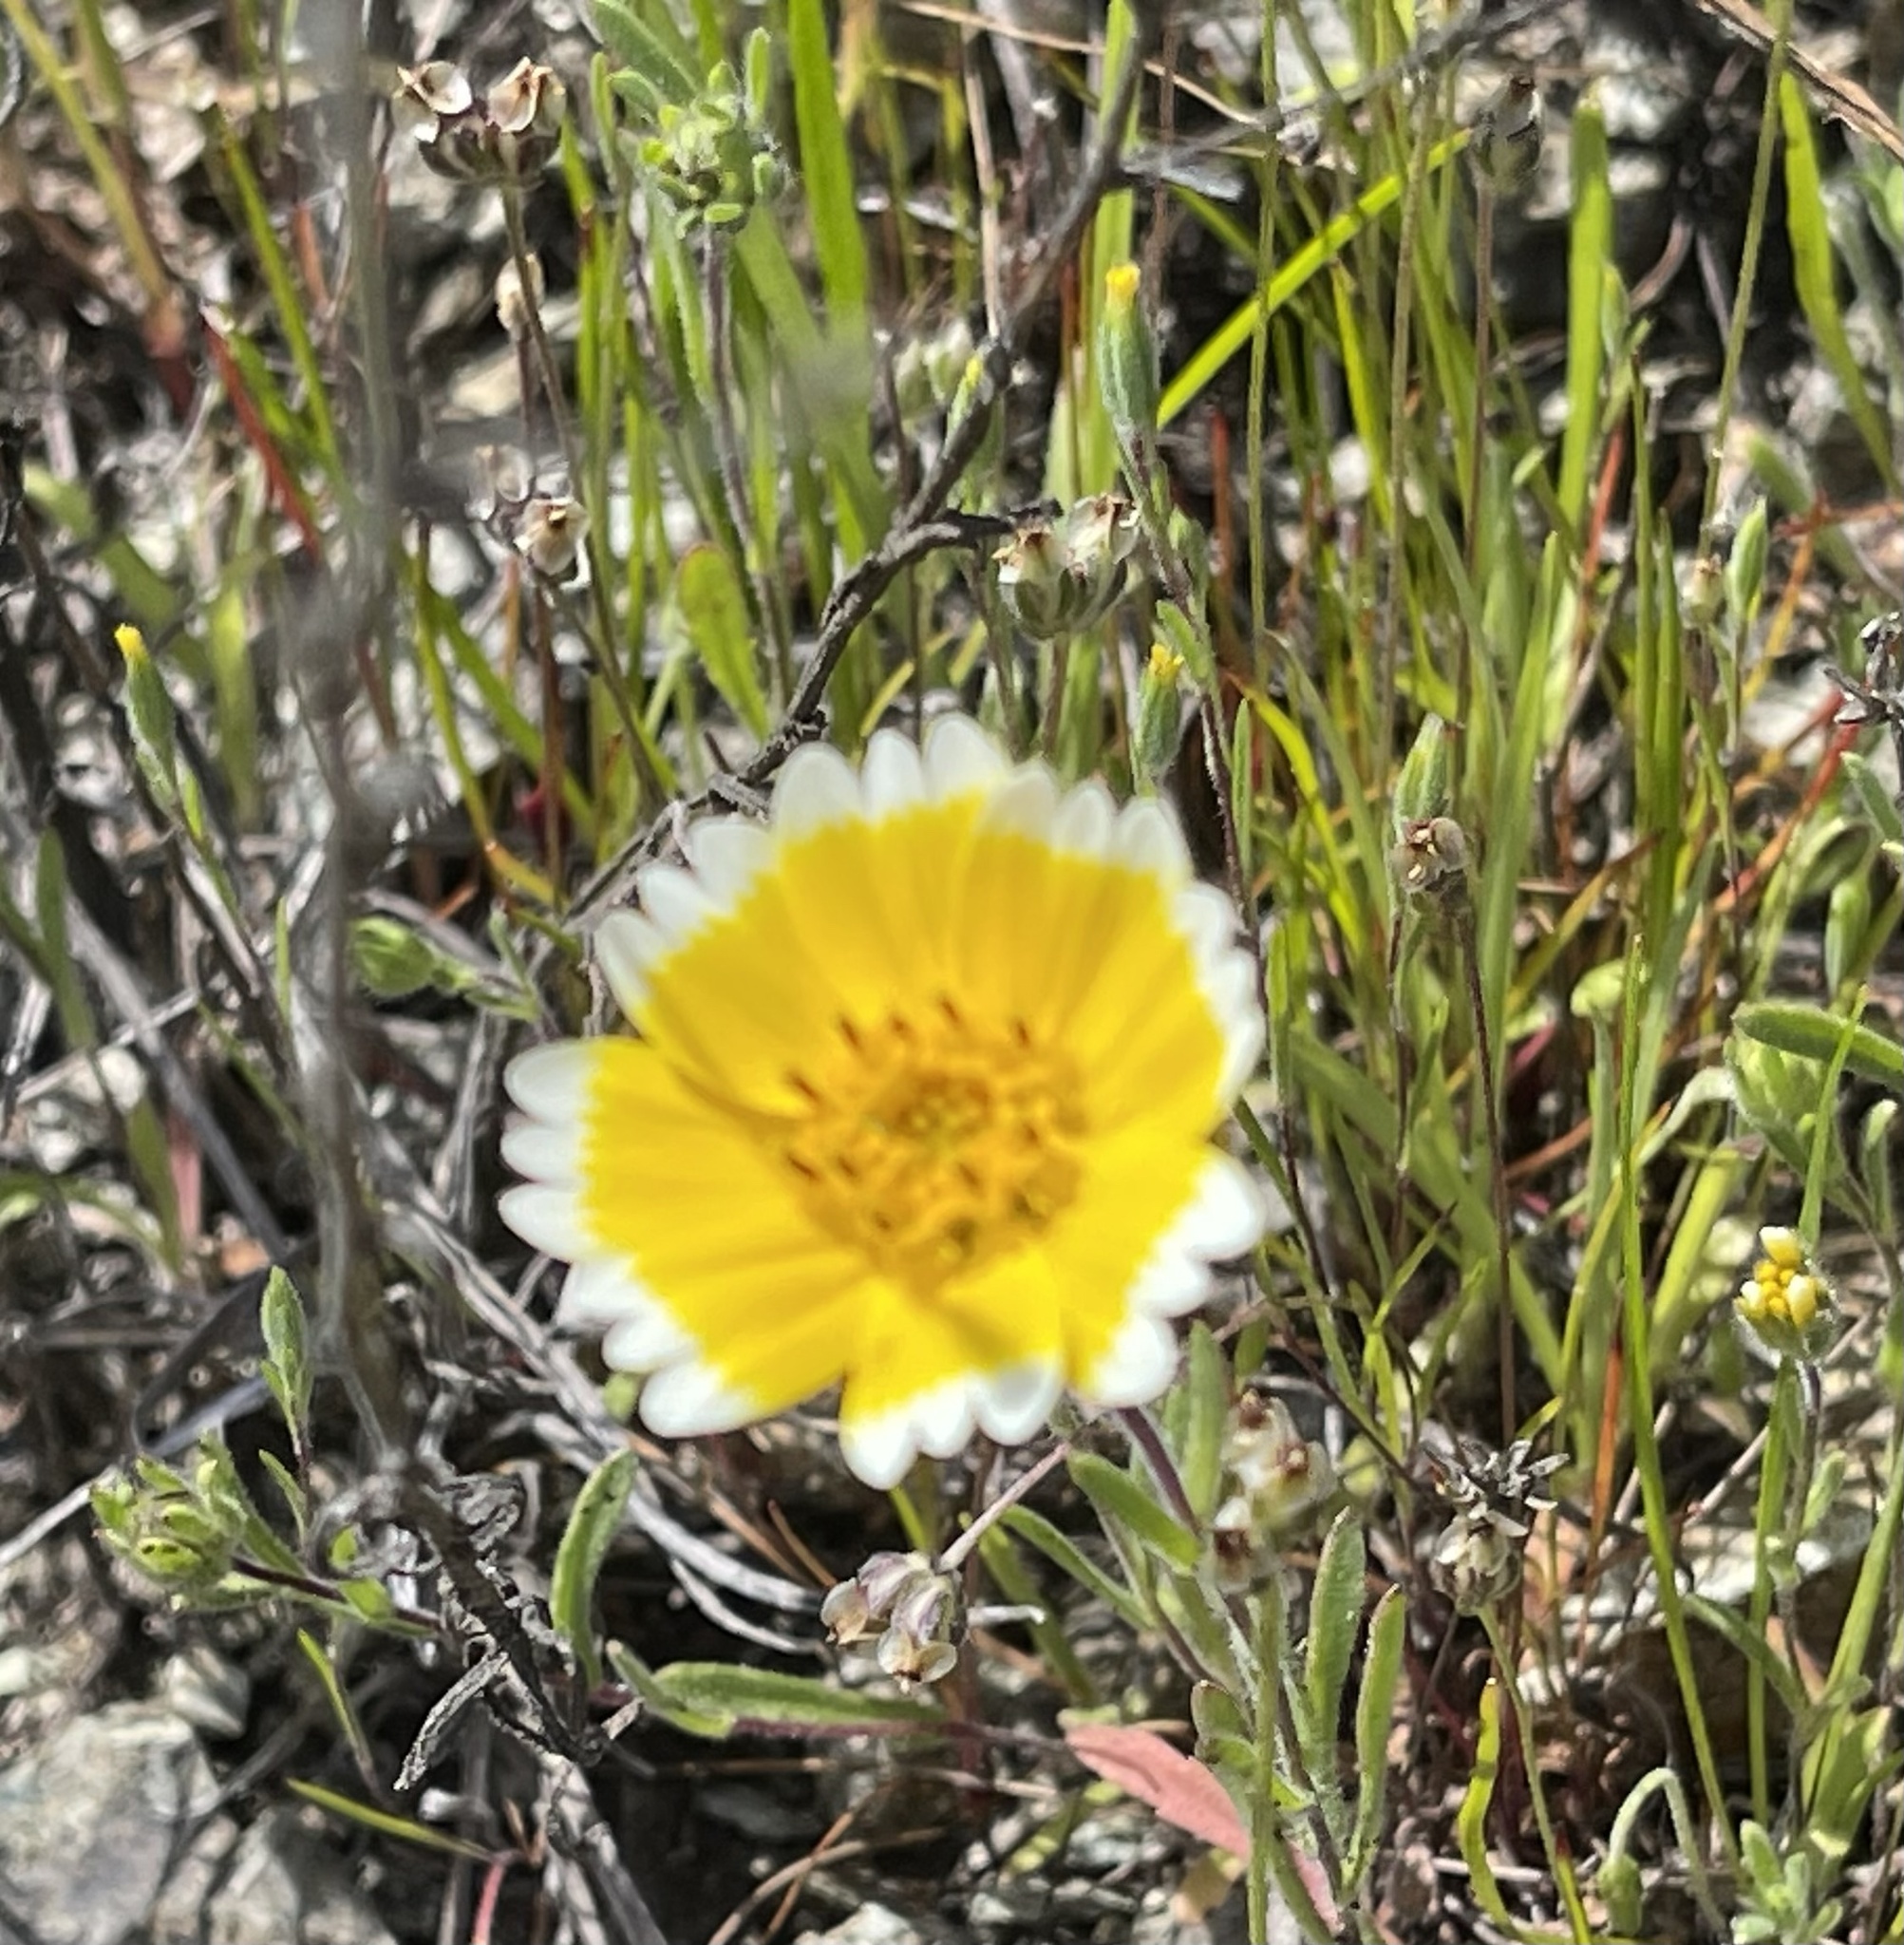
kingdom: Plantae
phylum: Tracheophyta
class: Magnoliopsida
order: Asterales
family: Asteraceae
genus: Layia
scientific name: Layia platyglossa
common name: Tidy-tips
